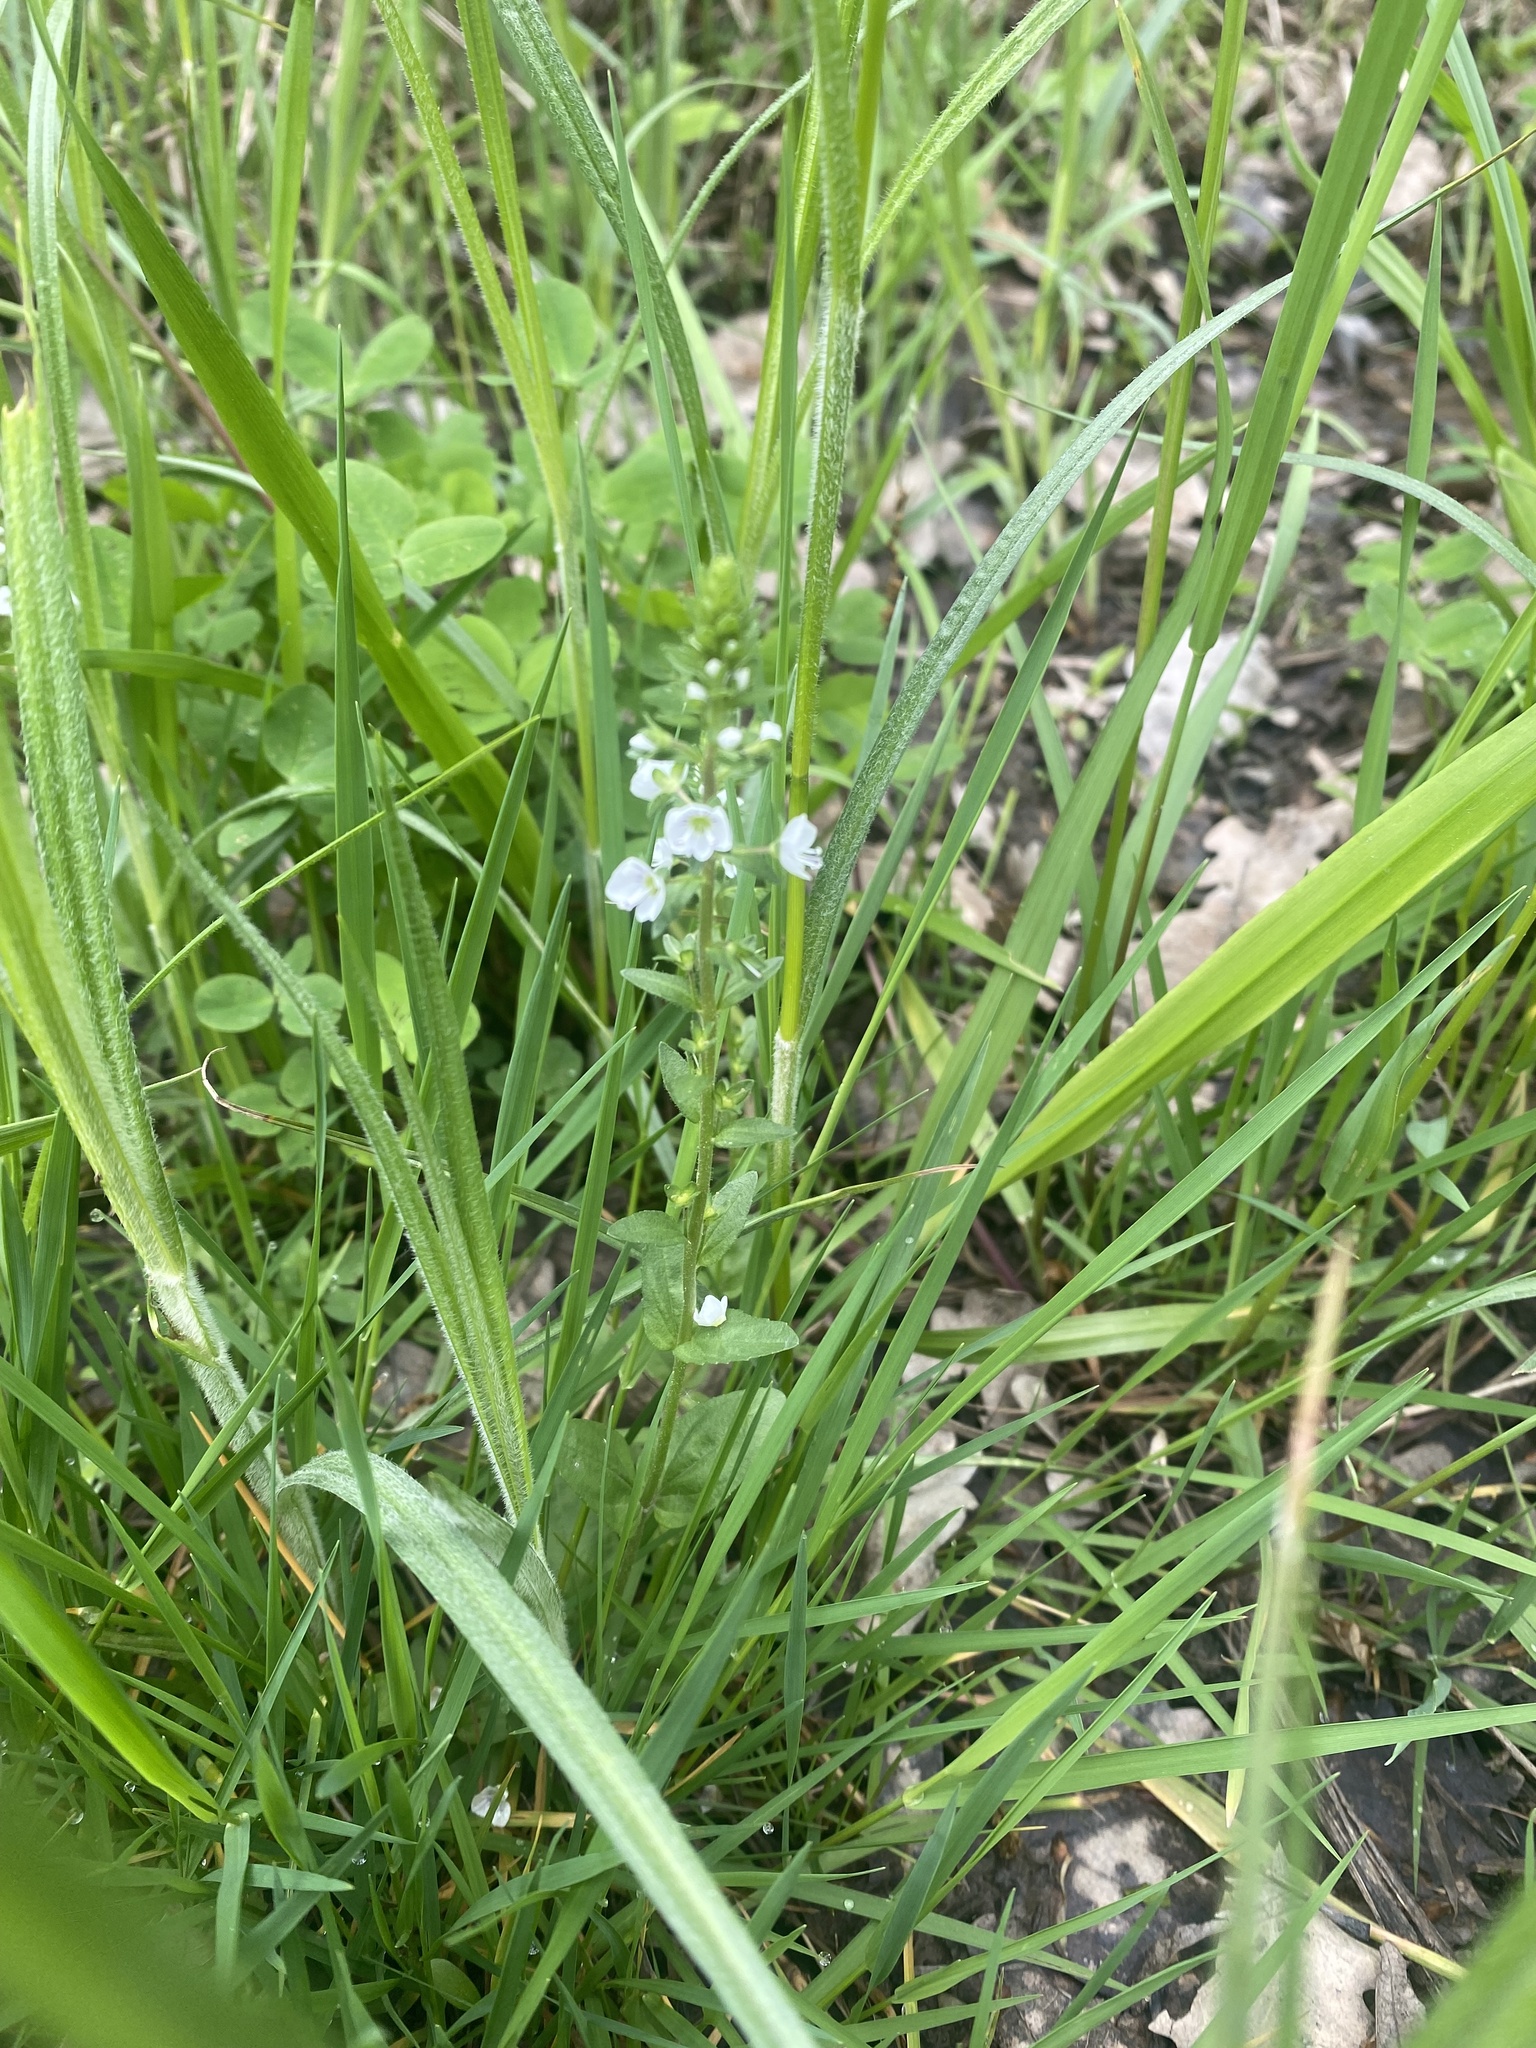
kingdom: Plantae
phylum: Tracheophyta
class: Magnoliopsida
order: Lamiales
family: Plantaginaceae
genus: Veronica
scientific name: Veronica serpyllifolia
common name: Thyme-leaved speedwell
